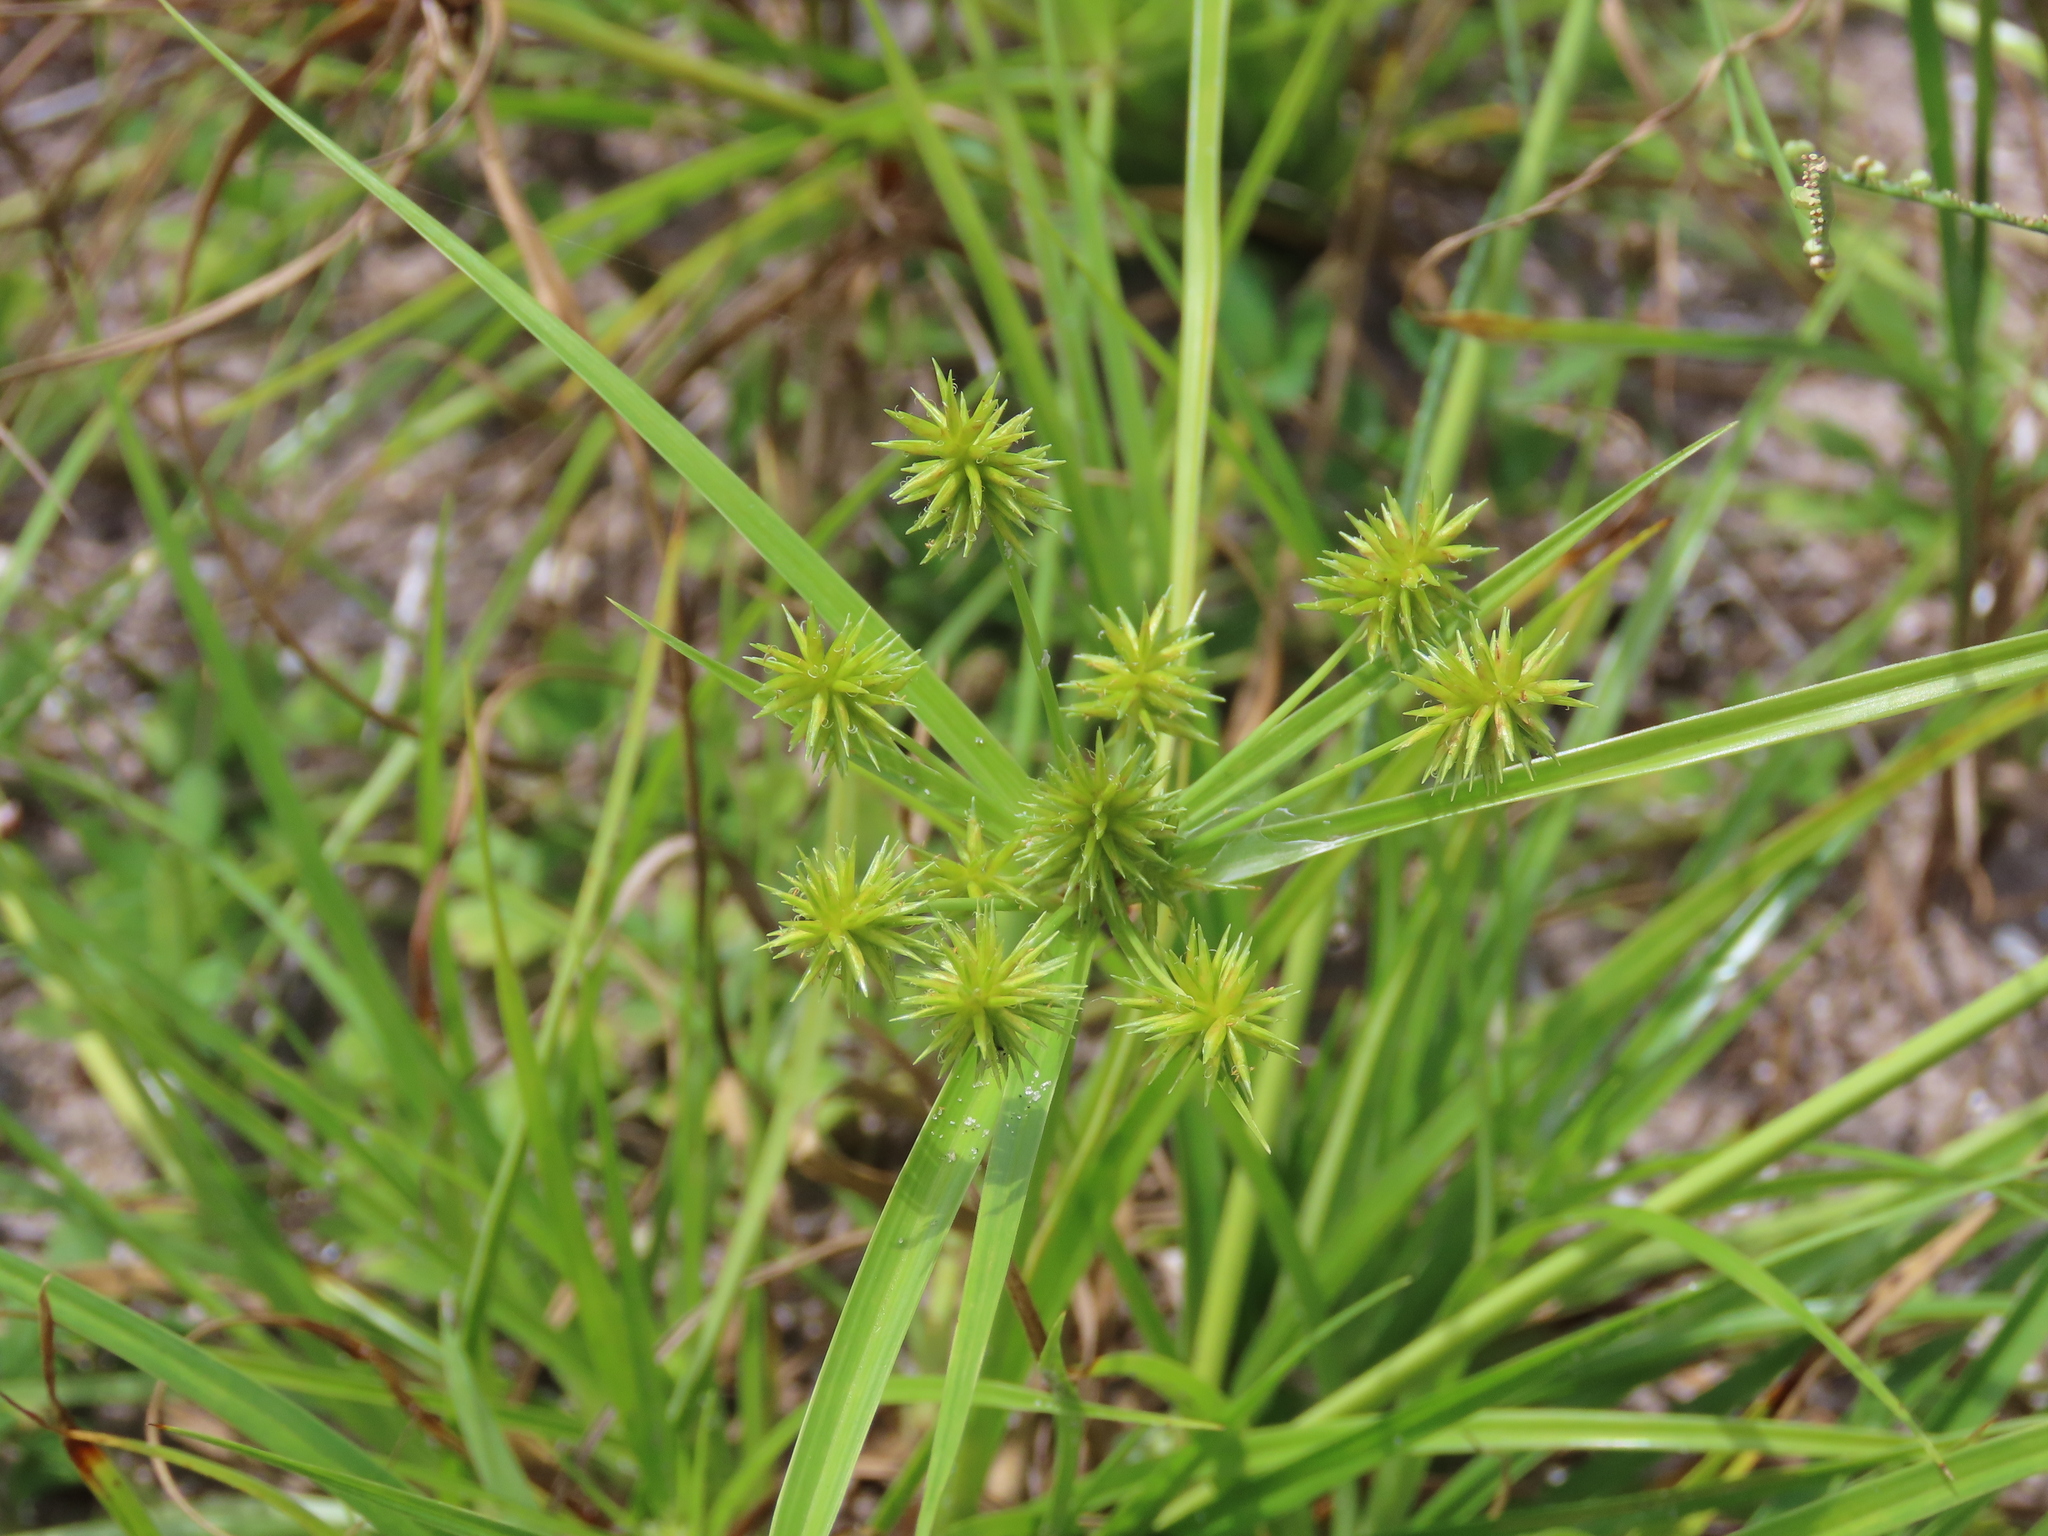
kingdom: Plantae
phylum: Tracheophyta
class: Liliopsida
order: Poales
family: Cyperaceae
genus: Cyperus
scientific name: Cyperus croceus
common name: Baldwin's flatsedge
